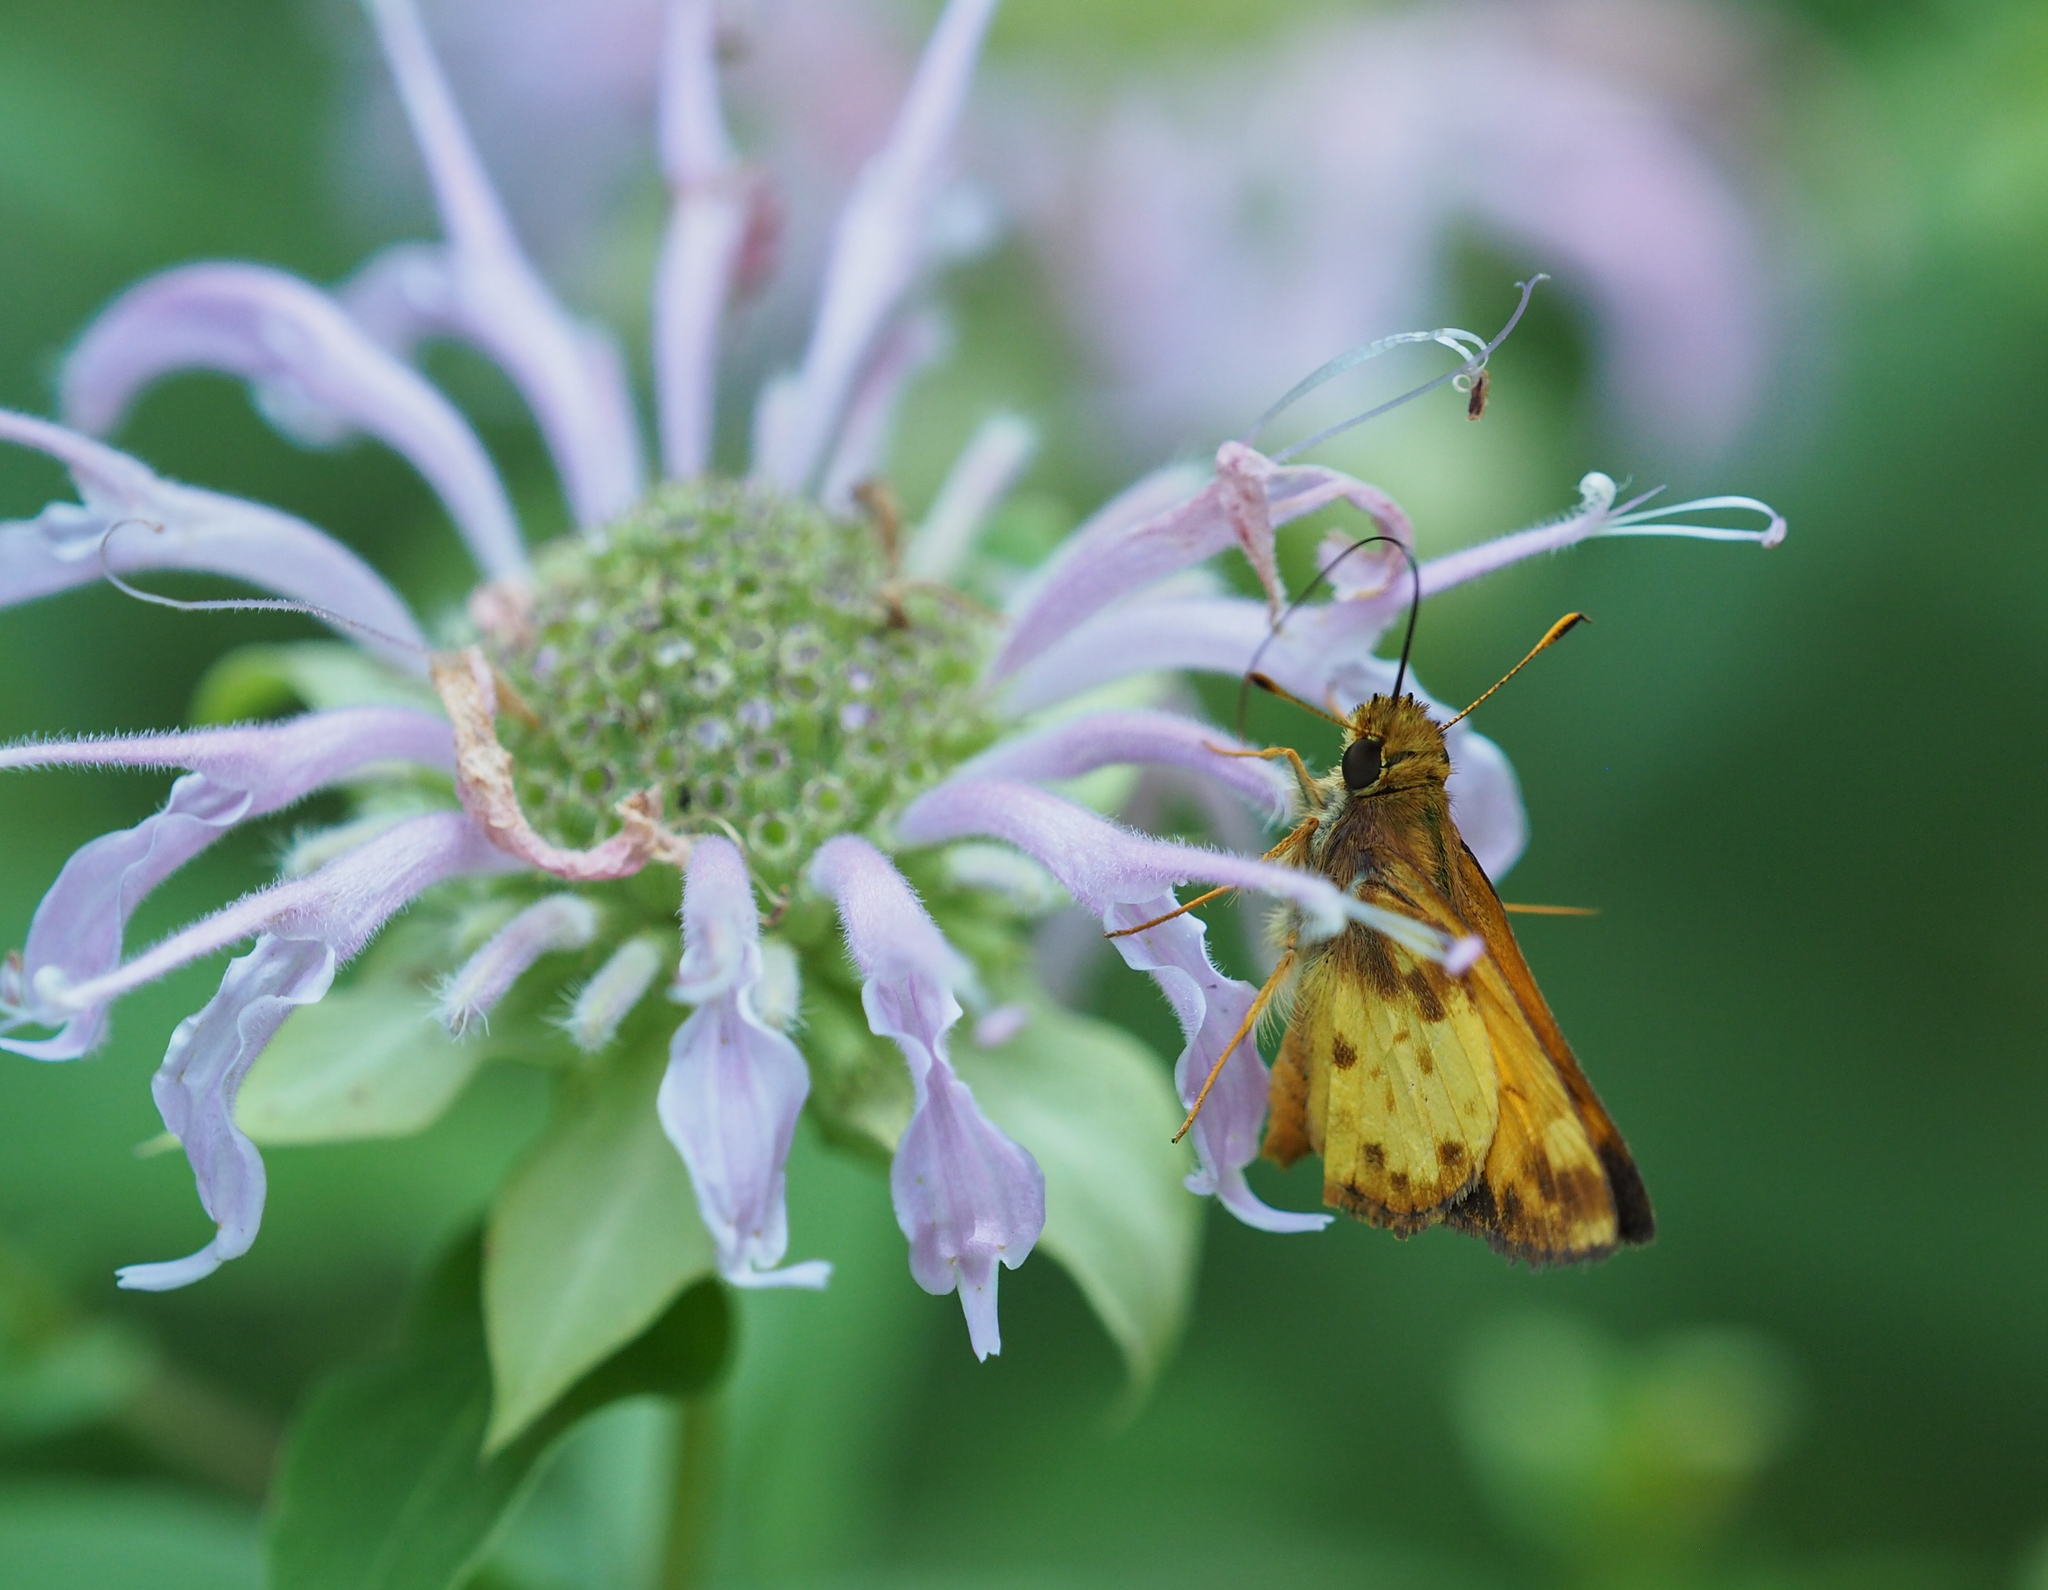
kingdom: Animalia
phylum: Arthropoda
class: Insecta
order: Lepidoptera
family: Hesperiidae
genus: Lon
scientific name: Lon zabulon
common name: Zabulon skipper
